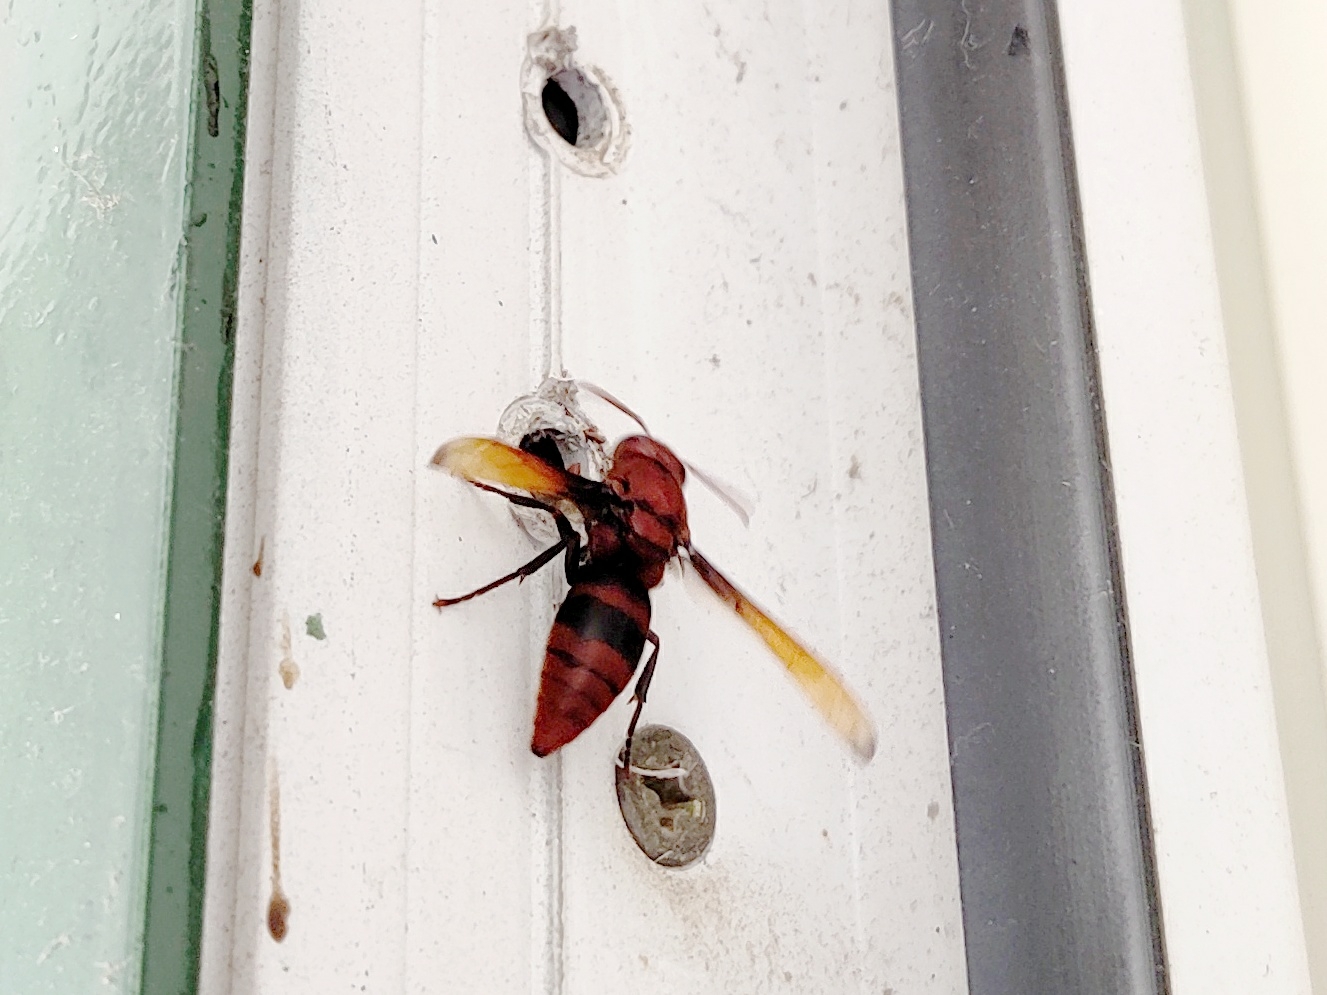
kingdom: Animalia
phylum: Arthropoda
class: Insecta
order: Hymenoptera
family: Eumenidae
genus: Rhynchium
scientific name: Rhynchium brunneum
